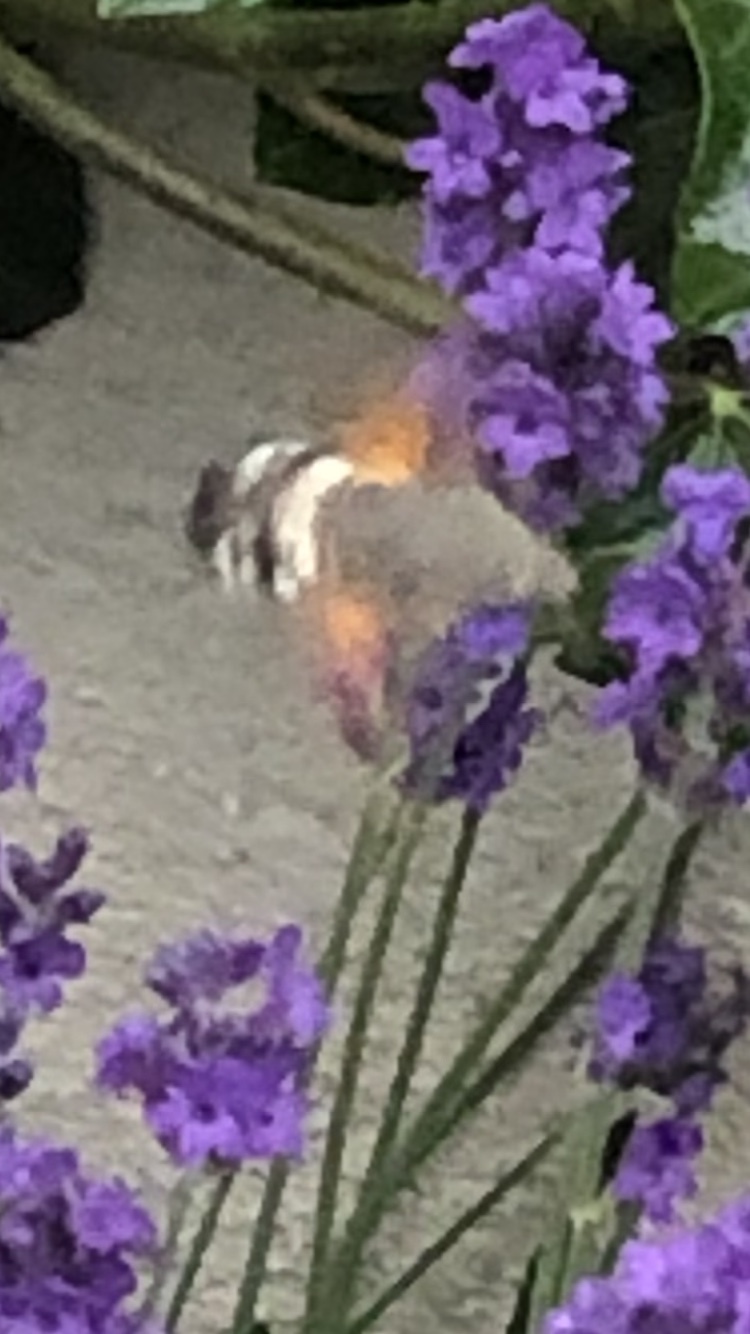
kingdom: Animalia
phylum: Arthropoda
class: Insecta
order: Lepidoptera
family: Sphingidae
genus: Macroglossum
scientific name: Macroglossum stellatarum
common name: Humming-bird hawk-moth
